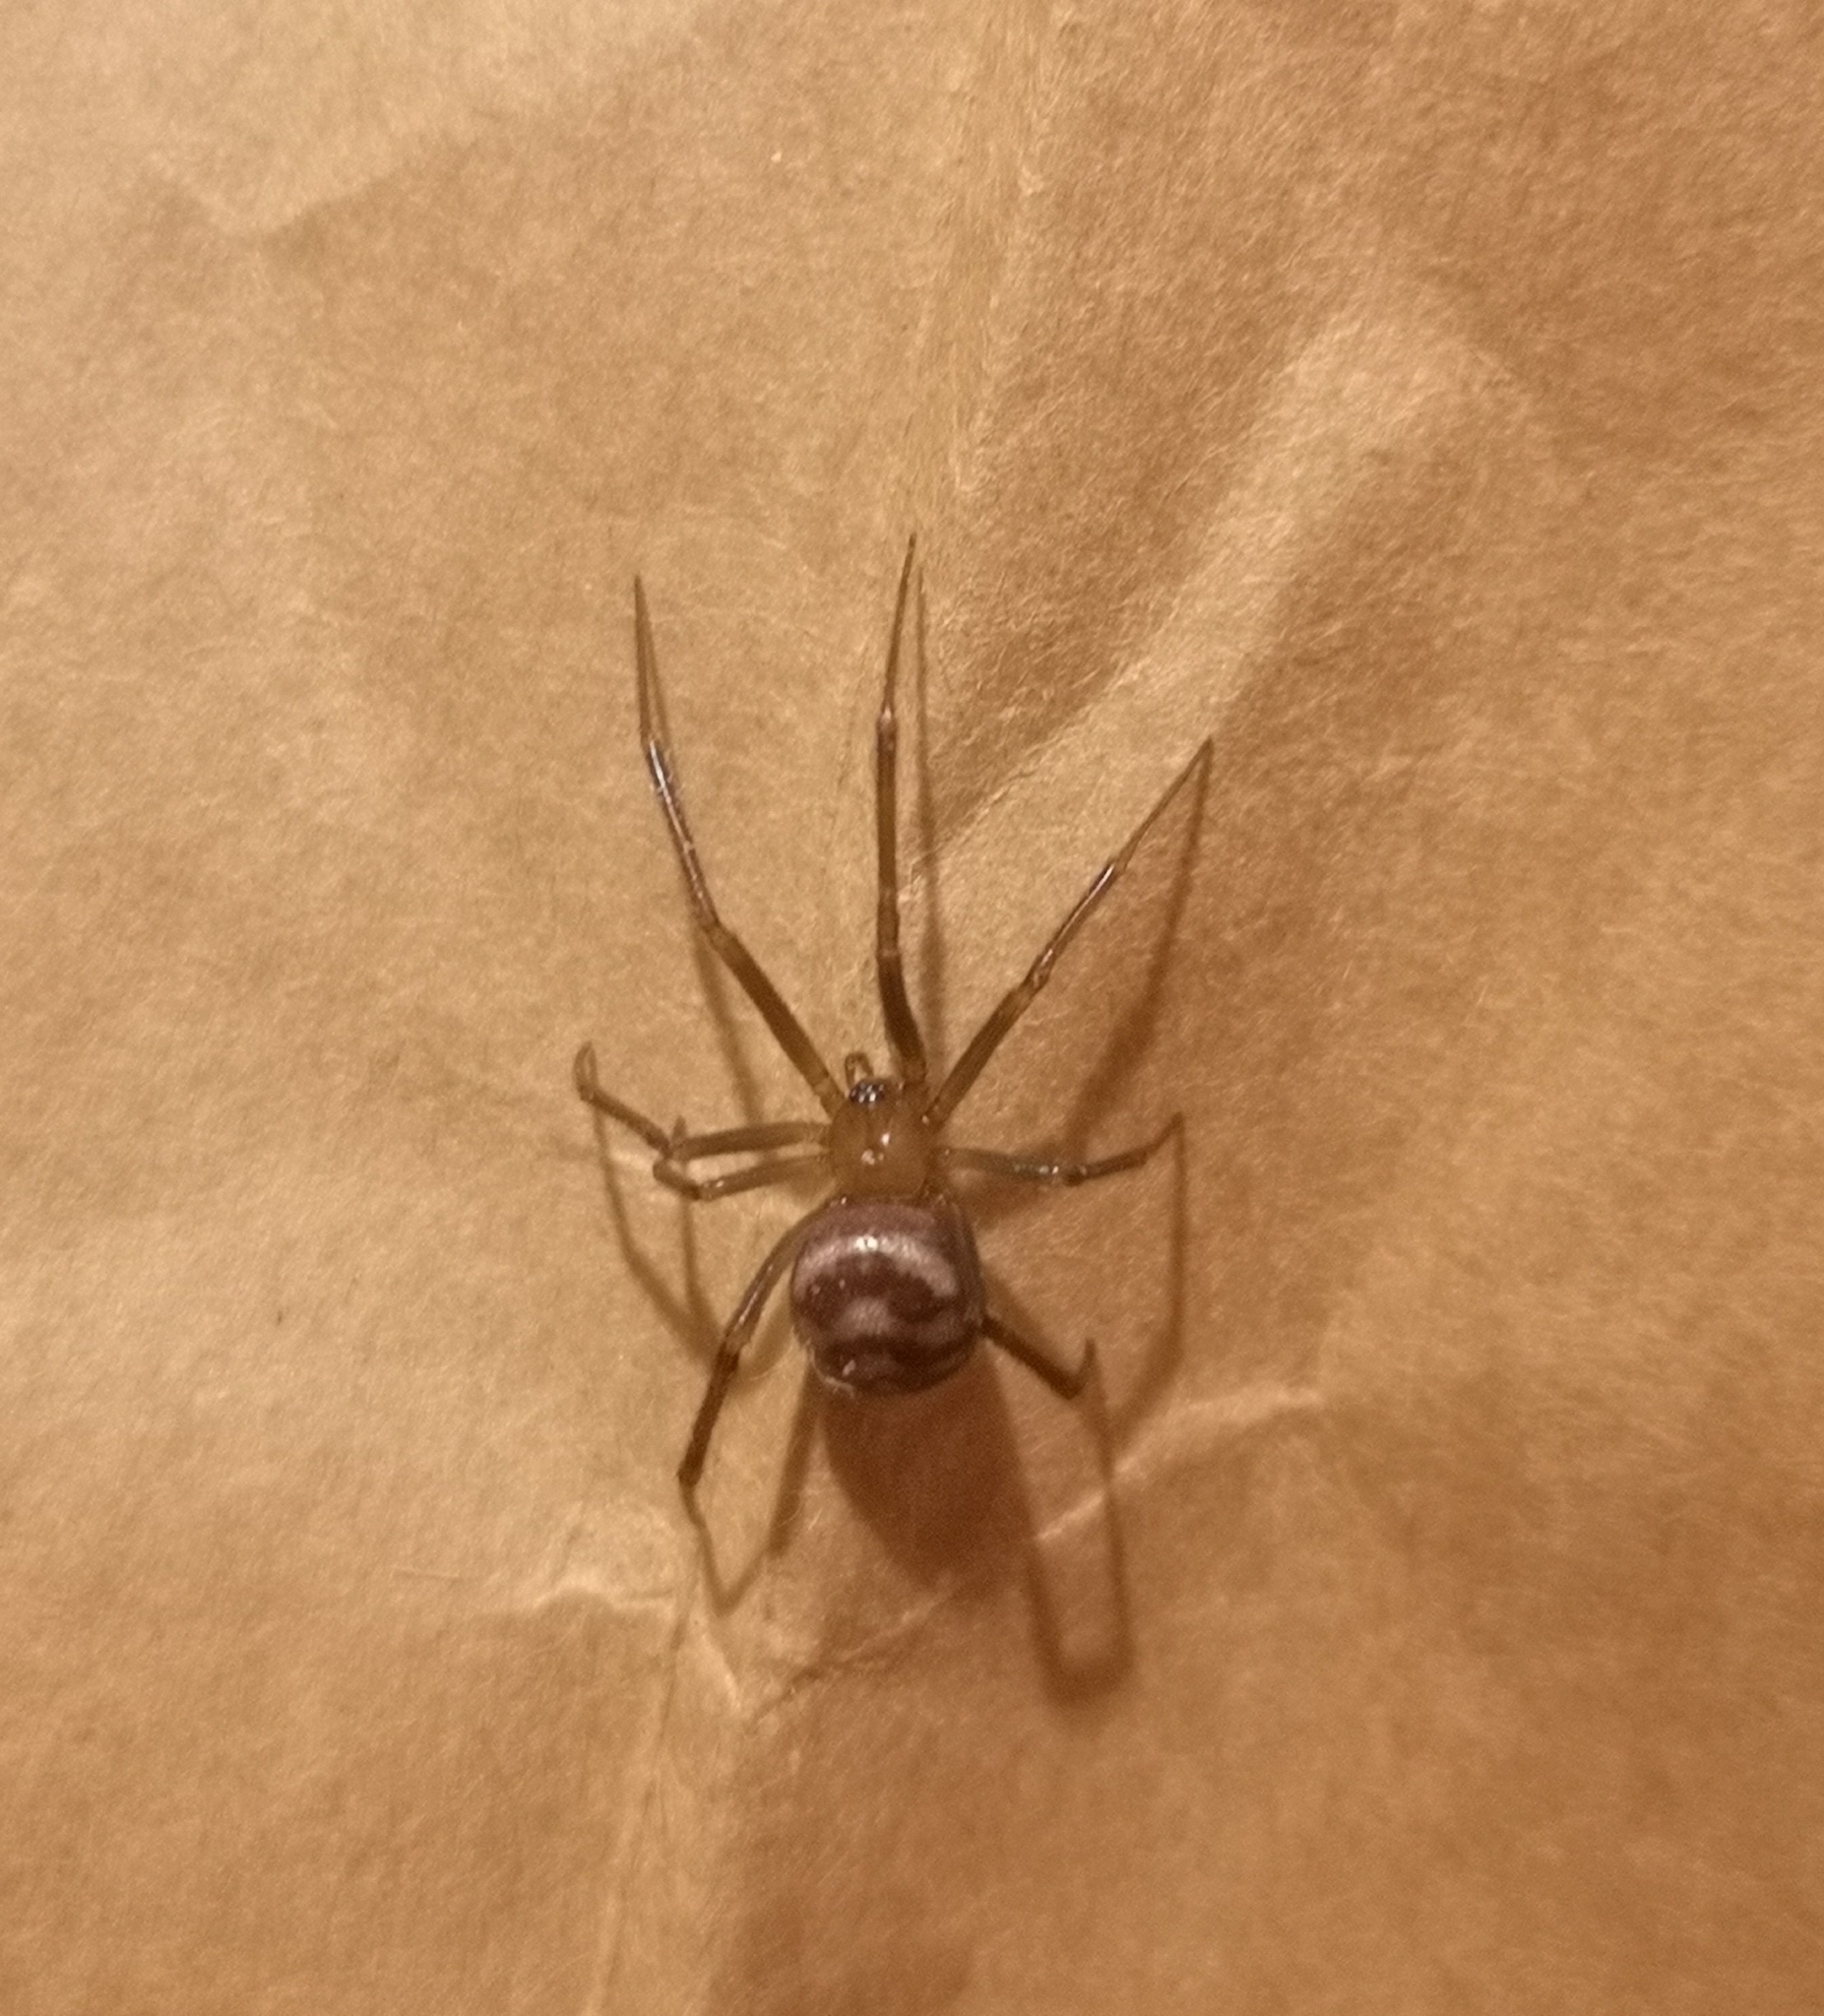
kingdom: Animalia
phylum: Arthropoda
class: Arachnida
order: Araneae
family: Theridiidae
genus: Steatoda
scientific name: Steatoda grossa
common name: False black widow
